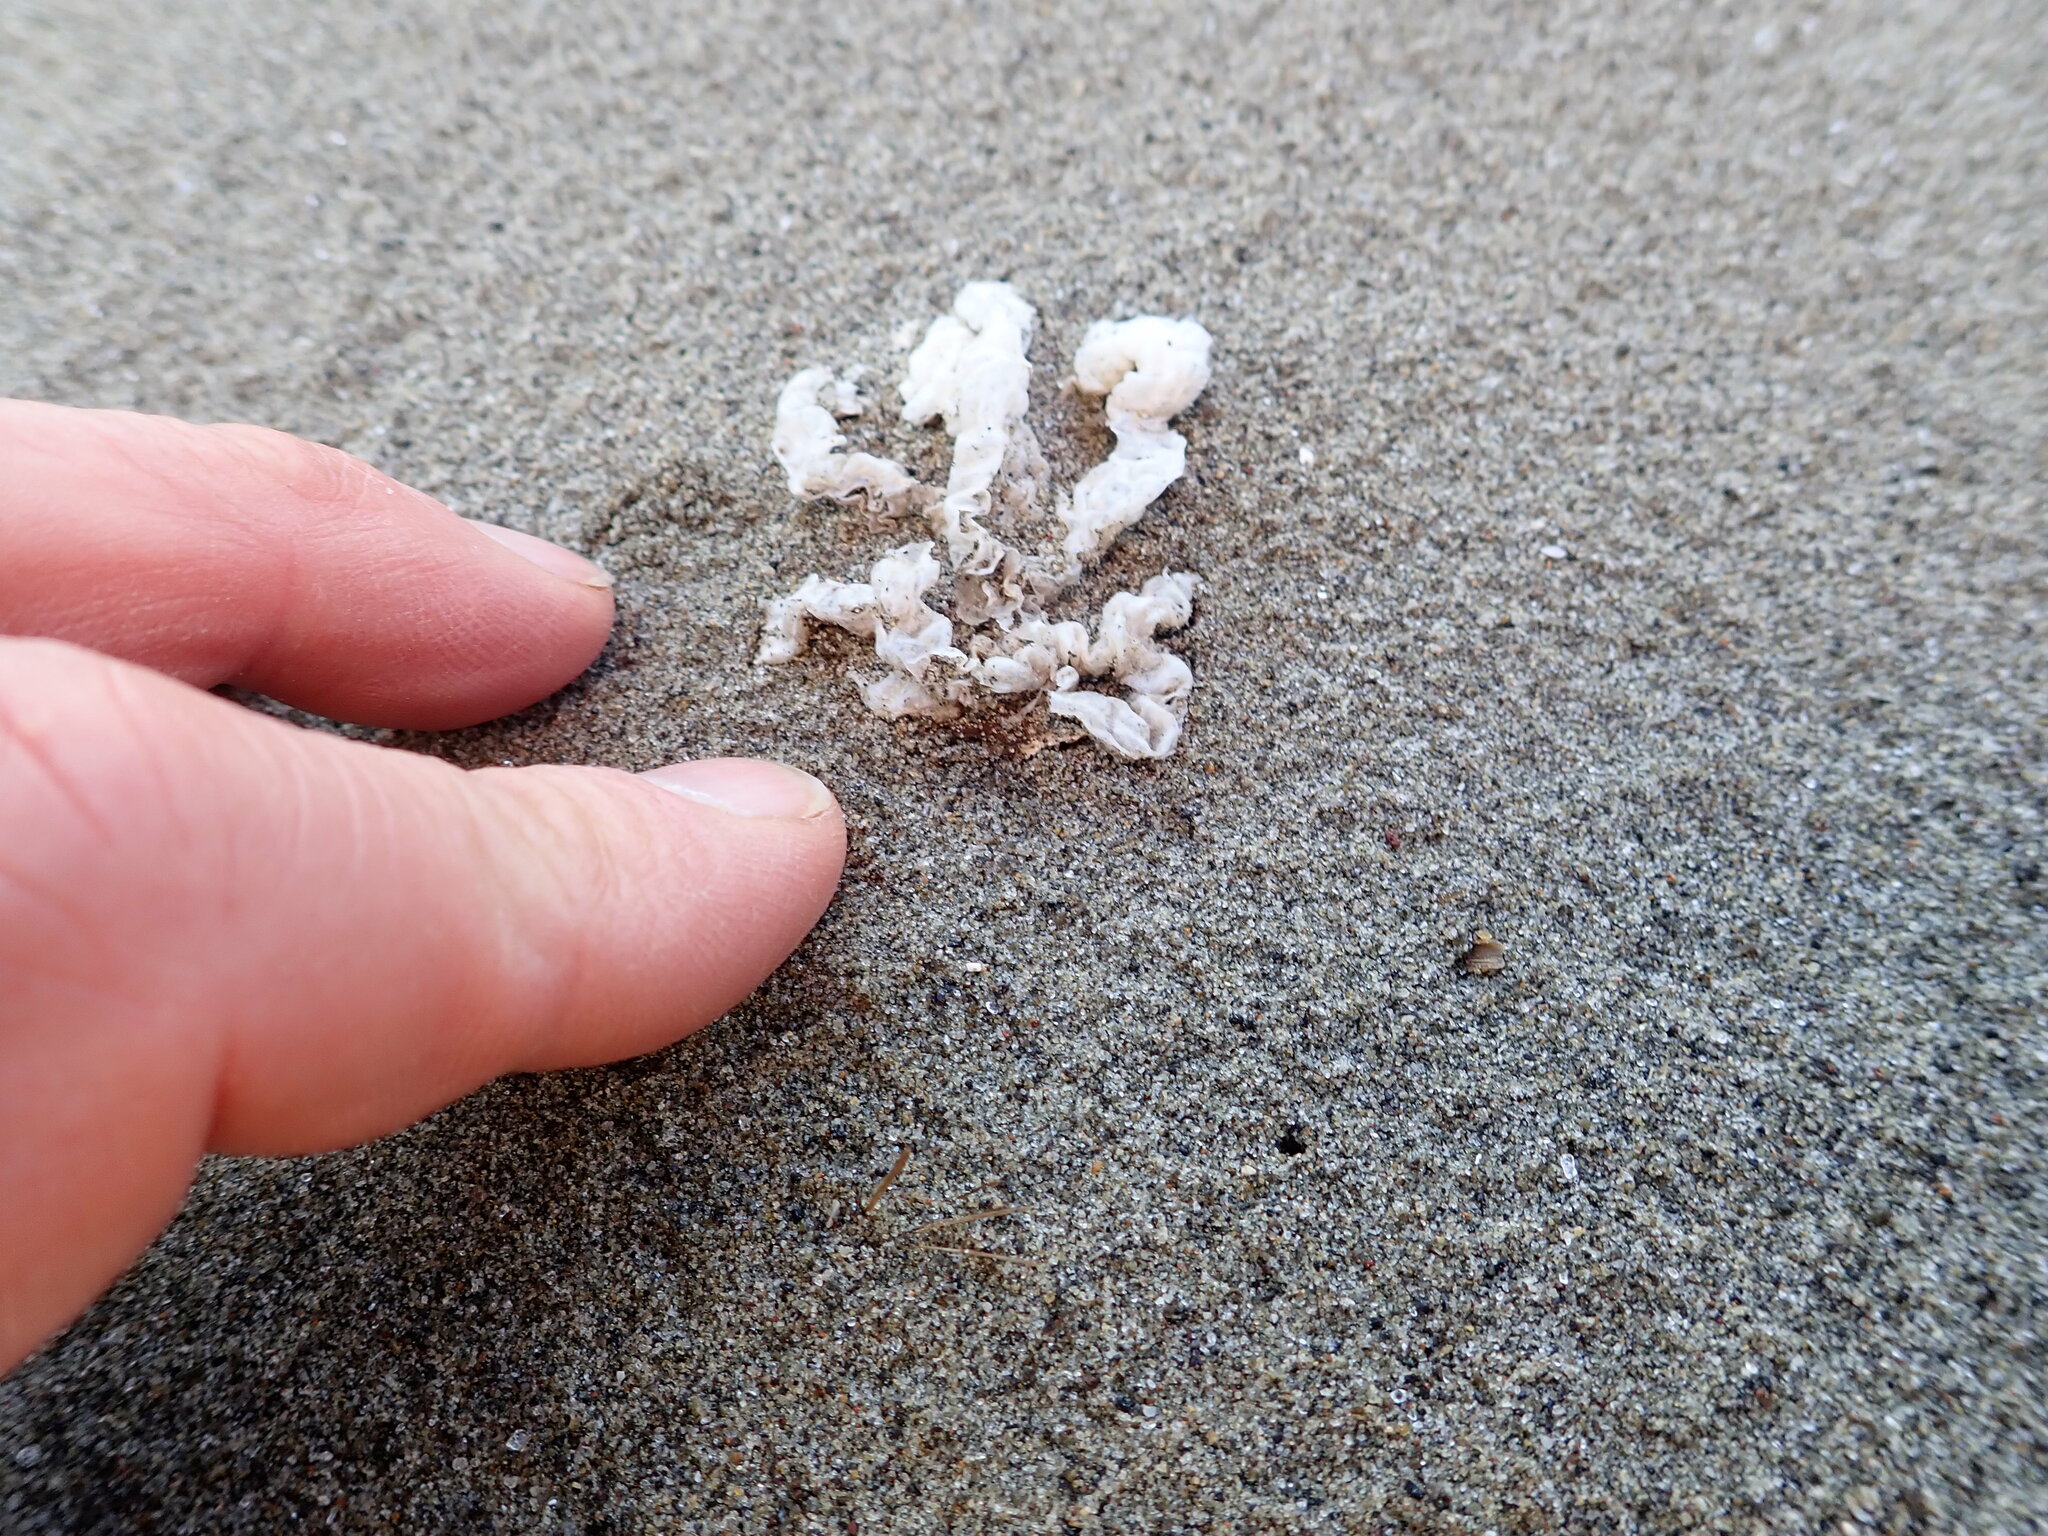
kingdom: Fungi
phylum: Basidiomycota
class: Agaricomycetes
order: Phallales
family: Phallaceae
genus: Ileodictyon
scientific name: Ileodictyon cibarium
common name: Basket fungus
